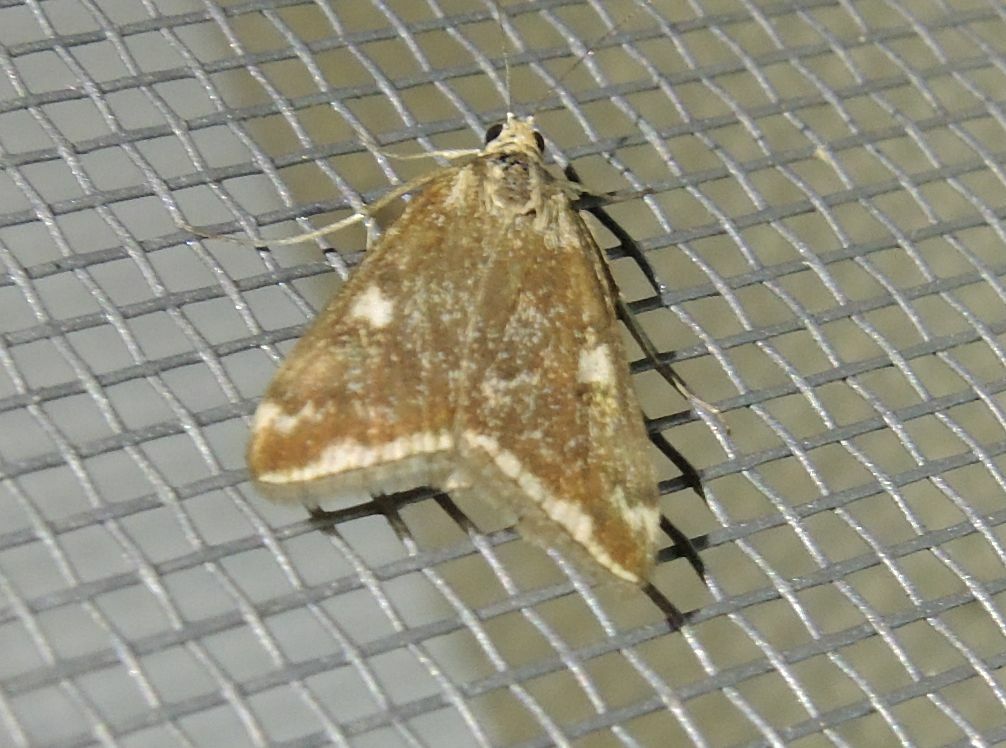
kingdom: Animalia
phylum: Arthropoda
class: Insecta
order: Lepidoptera
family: Crambidae
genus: Loxostege
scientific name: Loxostege sticticalis
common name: Crambid moth
